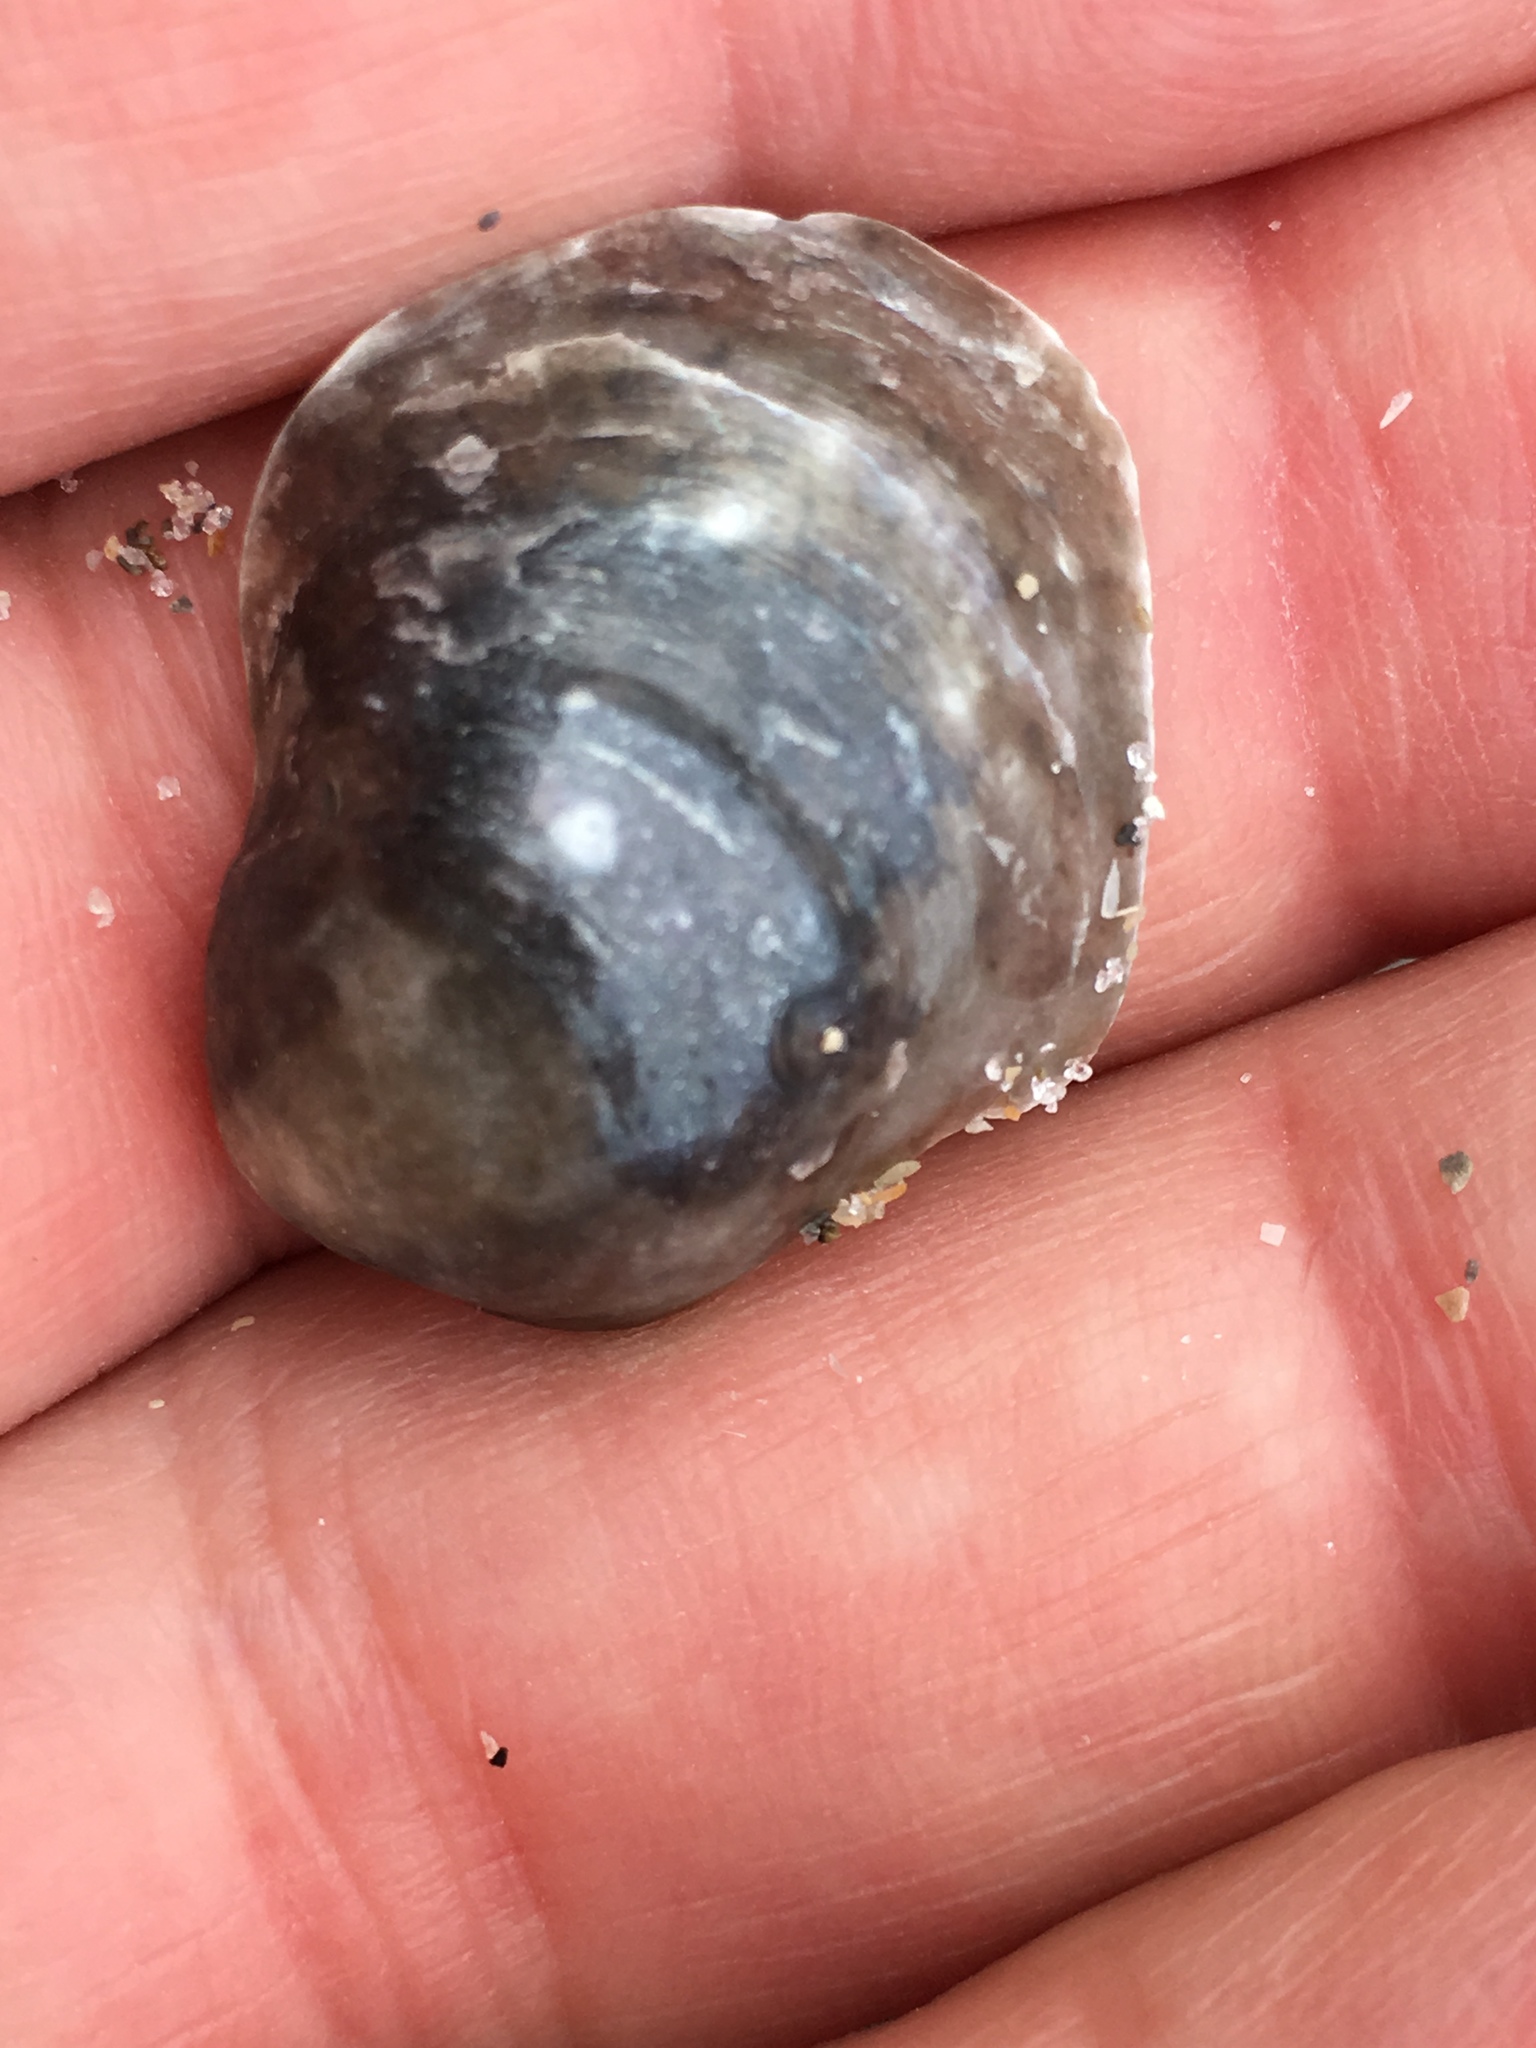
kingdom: Animalia
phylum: Mollusca
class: Bivalvia
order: Pectinida
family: Anomiidae
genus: Anomia
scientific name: Anomia simplex
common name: Common jingle shell
